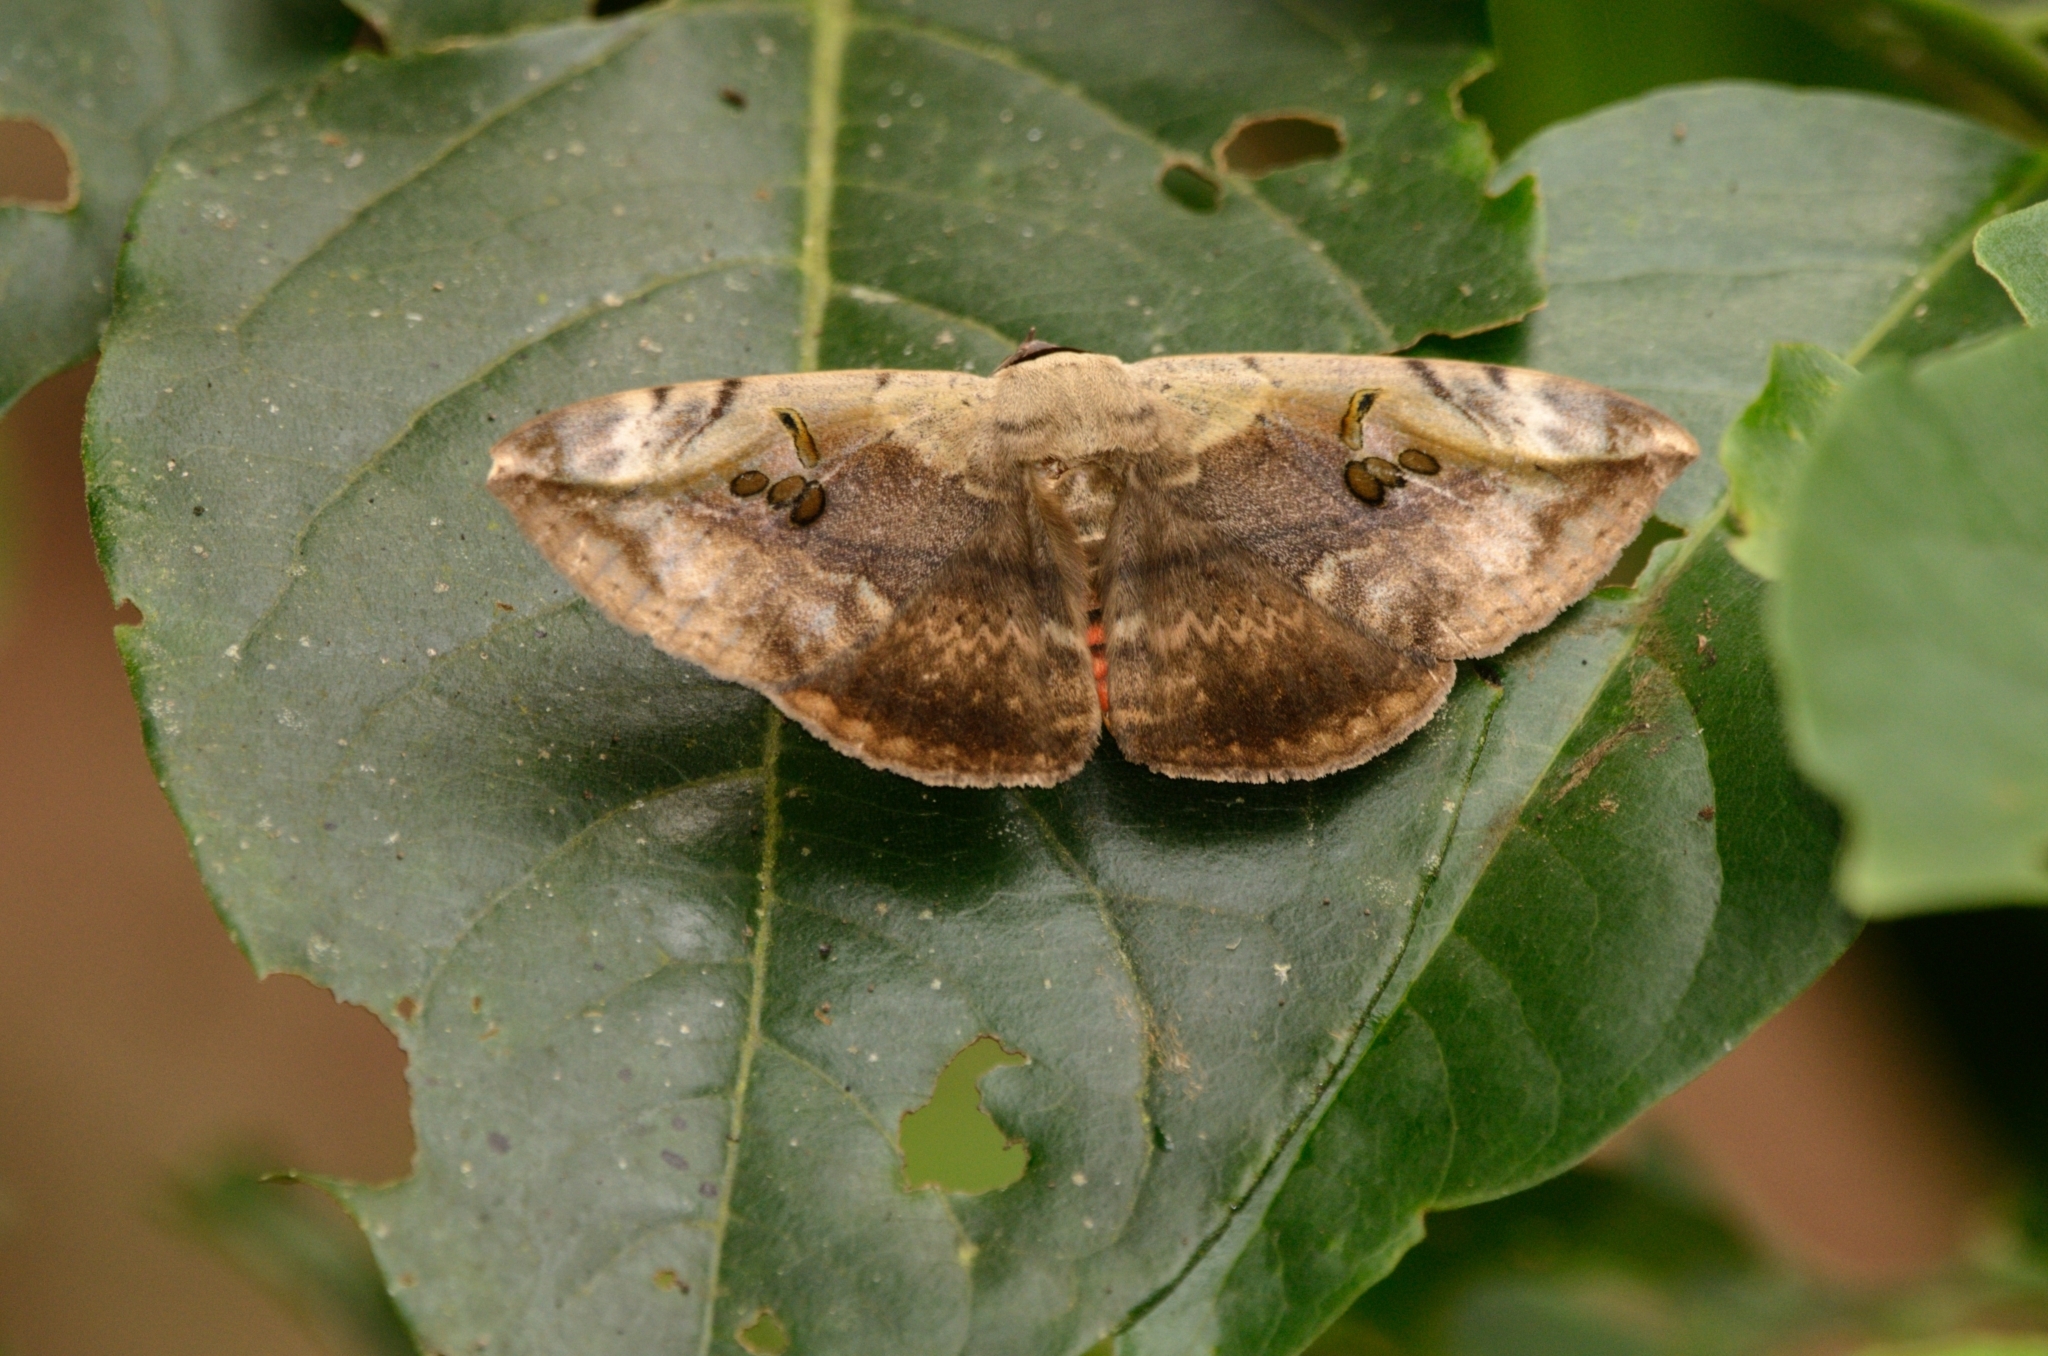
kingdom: Animalia
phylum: Arthropoda
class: Insecta
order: Lepidoptera
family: Erebidae
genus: Hypopyra
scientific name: Hypopyra vespertilio
